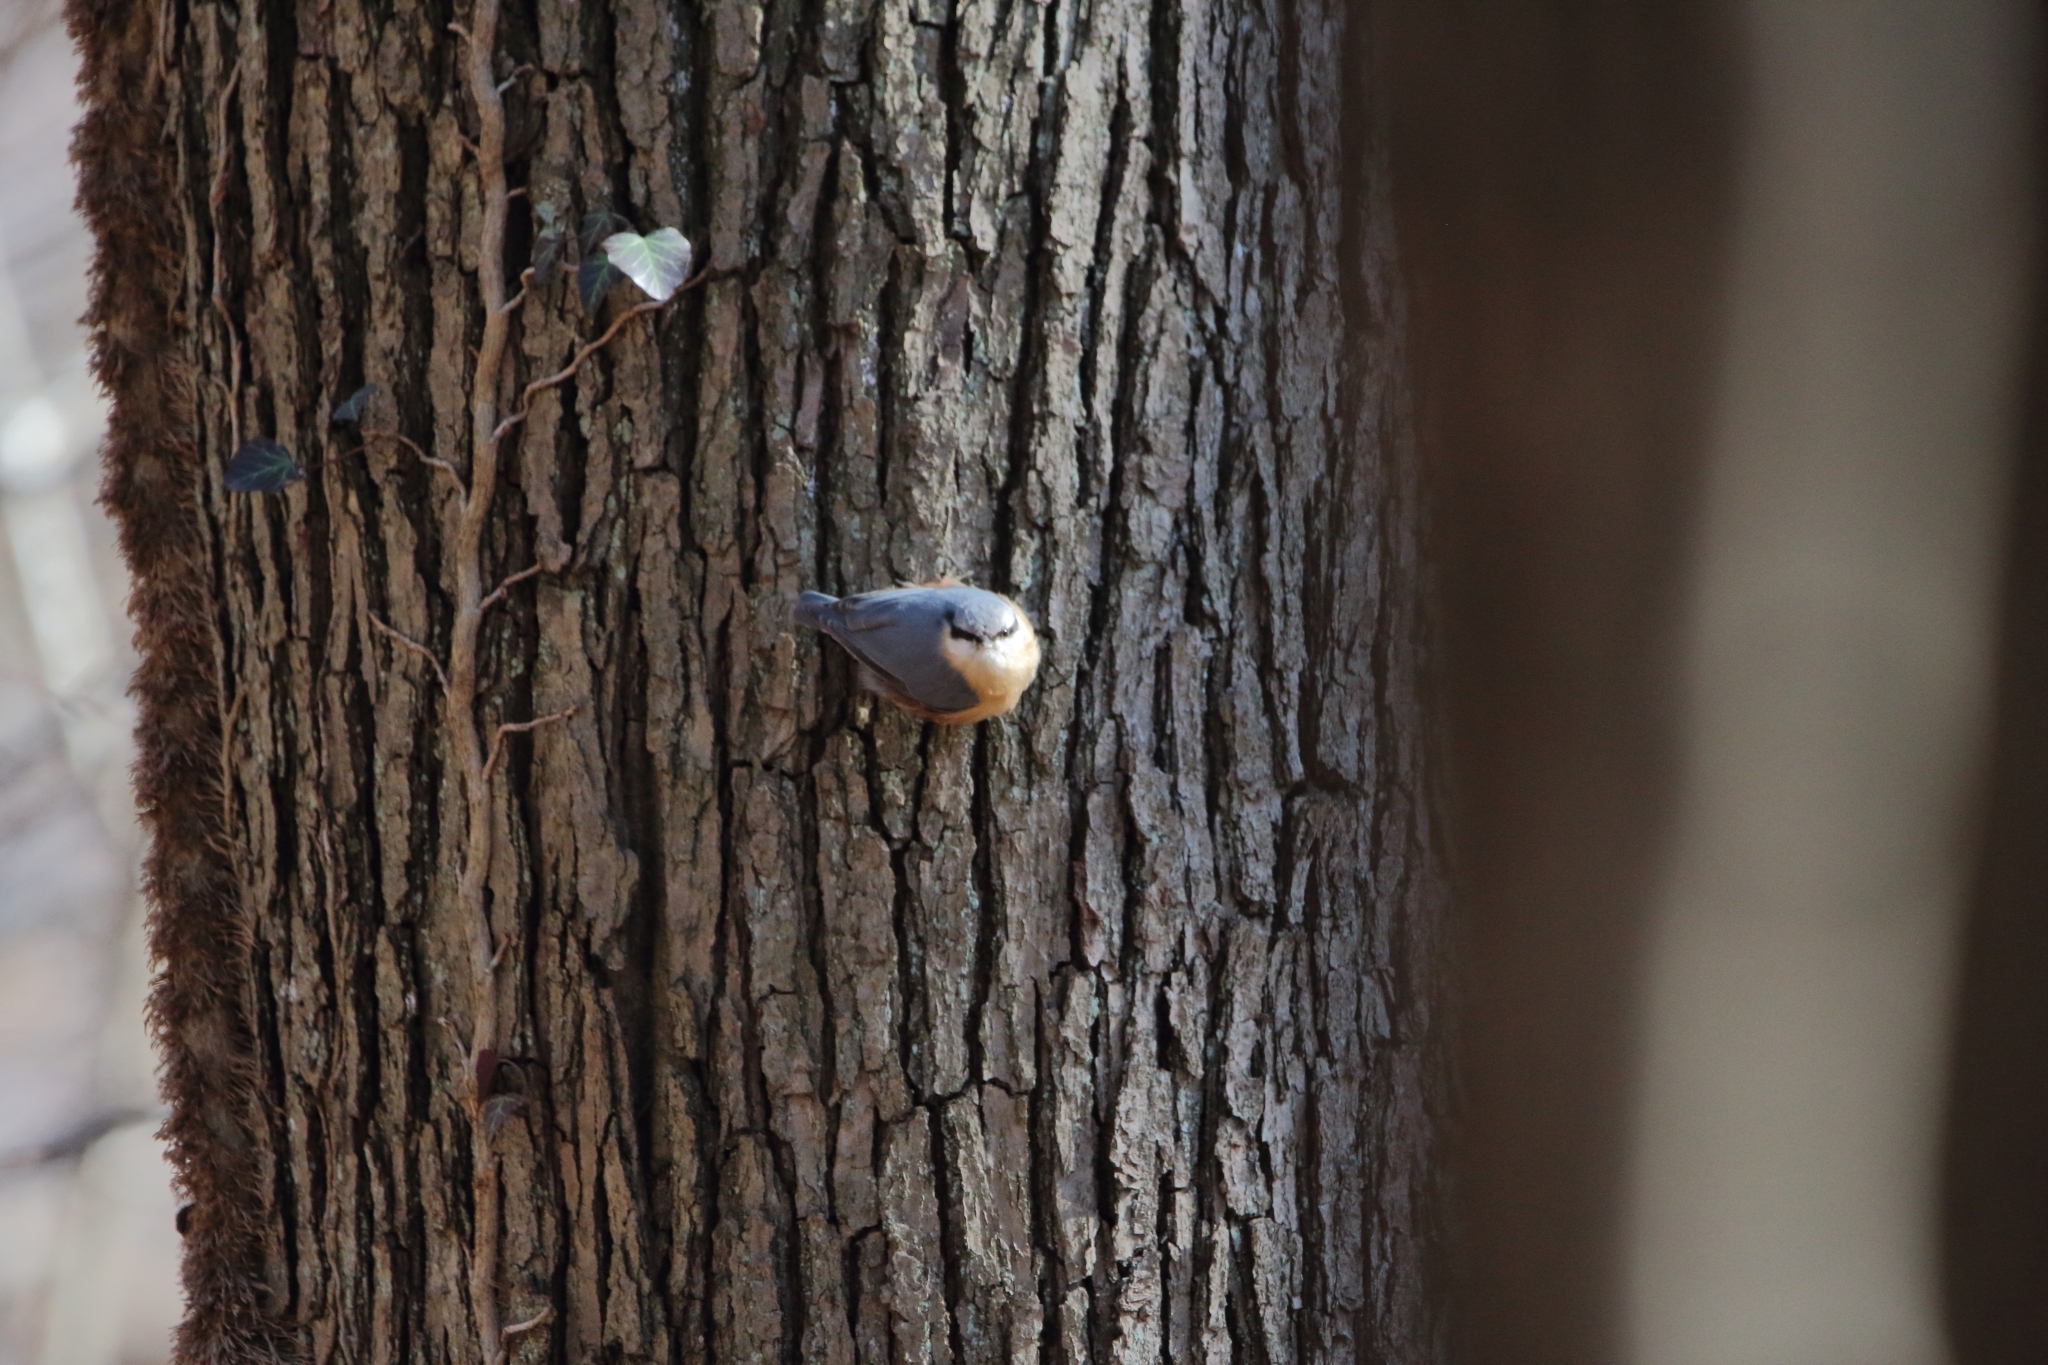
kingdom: Animalia
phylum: Chordata
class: Aves
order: Passeriformes
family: Sittidae
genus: Sitta
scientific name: Sitta europaea
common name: Eurasian nuthatch
